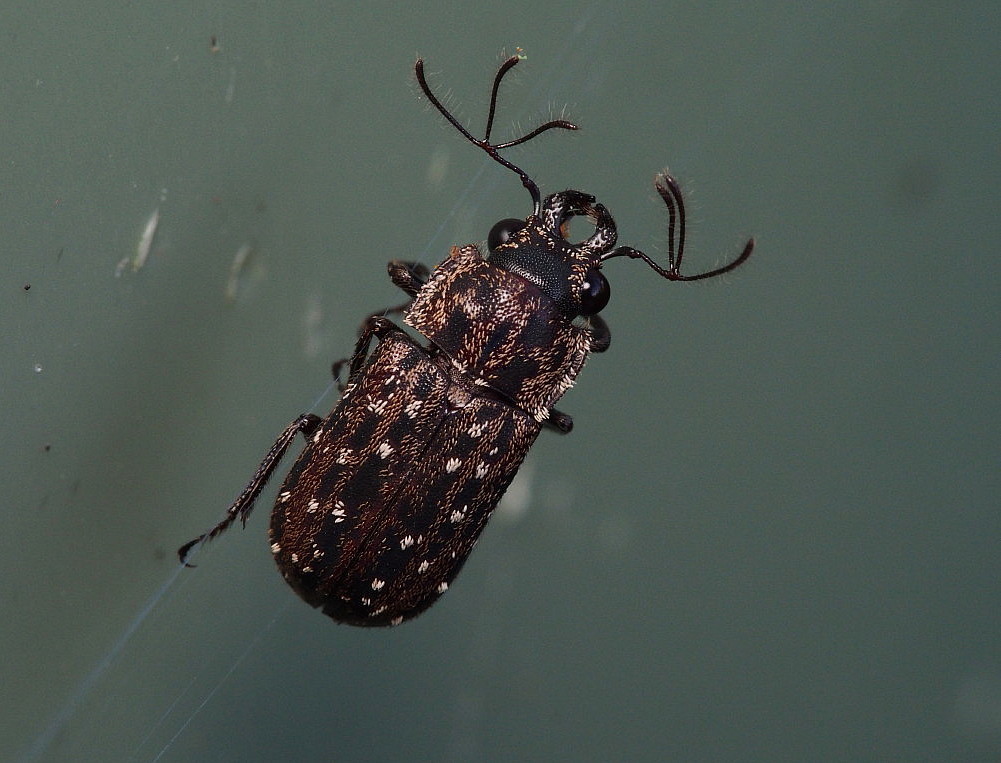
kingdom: Animalia
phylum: Arthropoda
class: Insecta
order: Coleoptera
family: Lucanidae
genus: Mitophyllus
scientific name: Mitophyllus arcuatus
